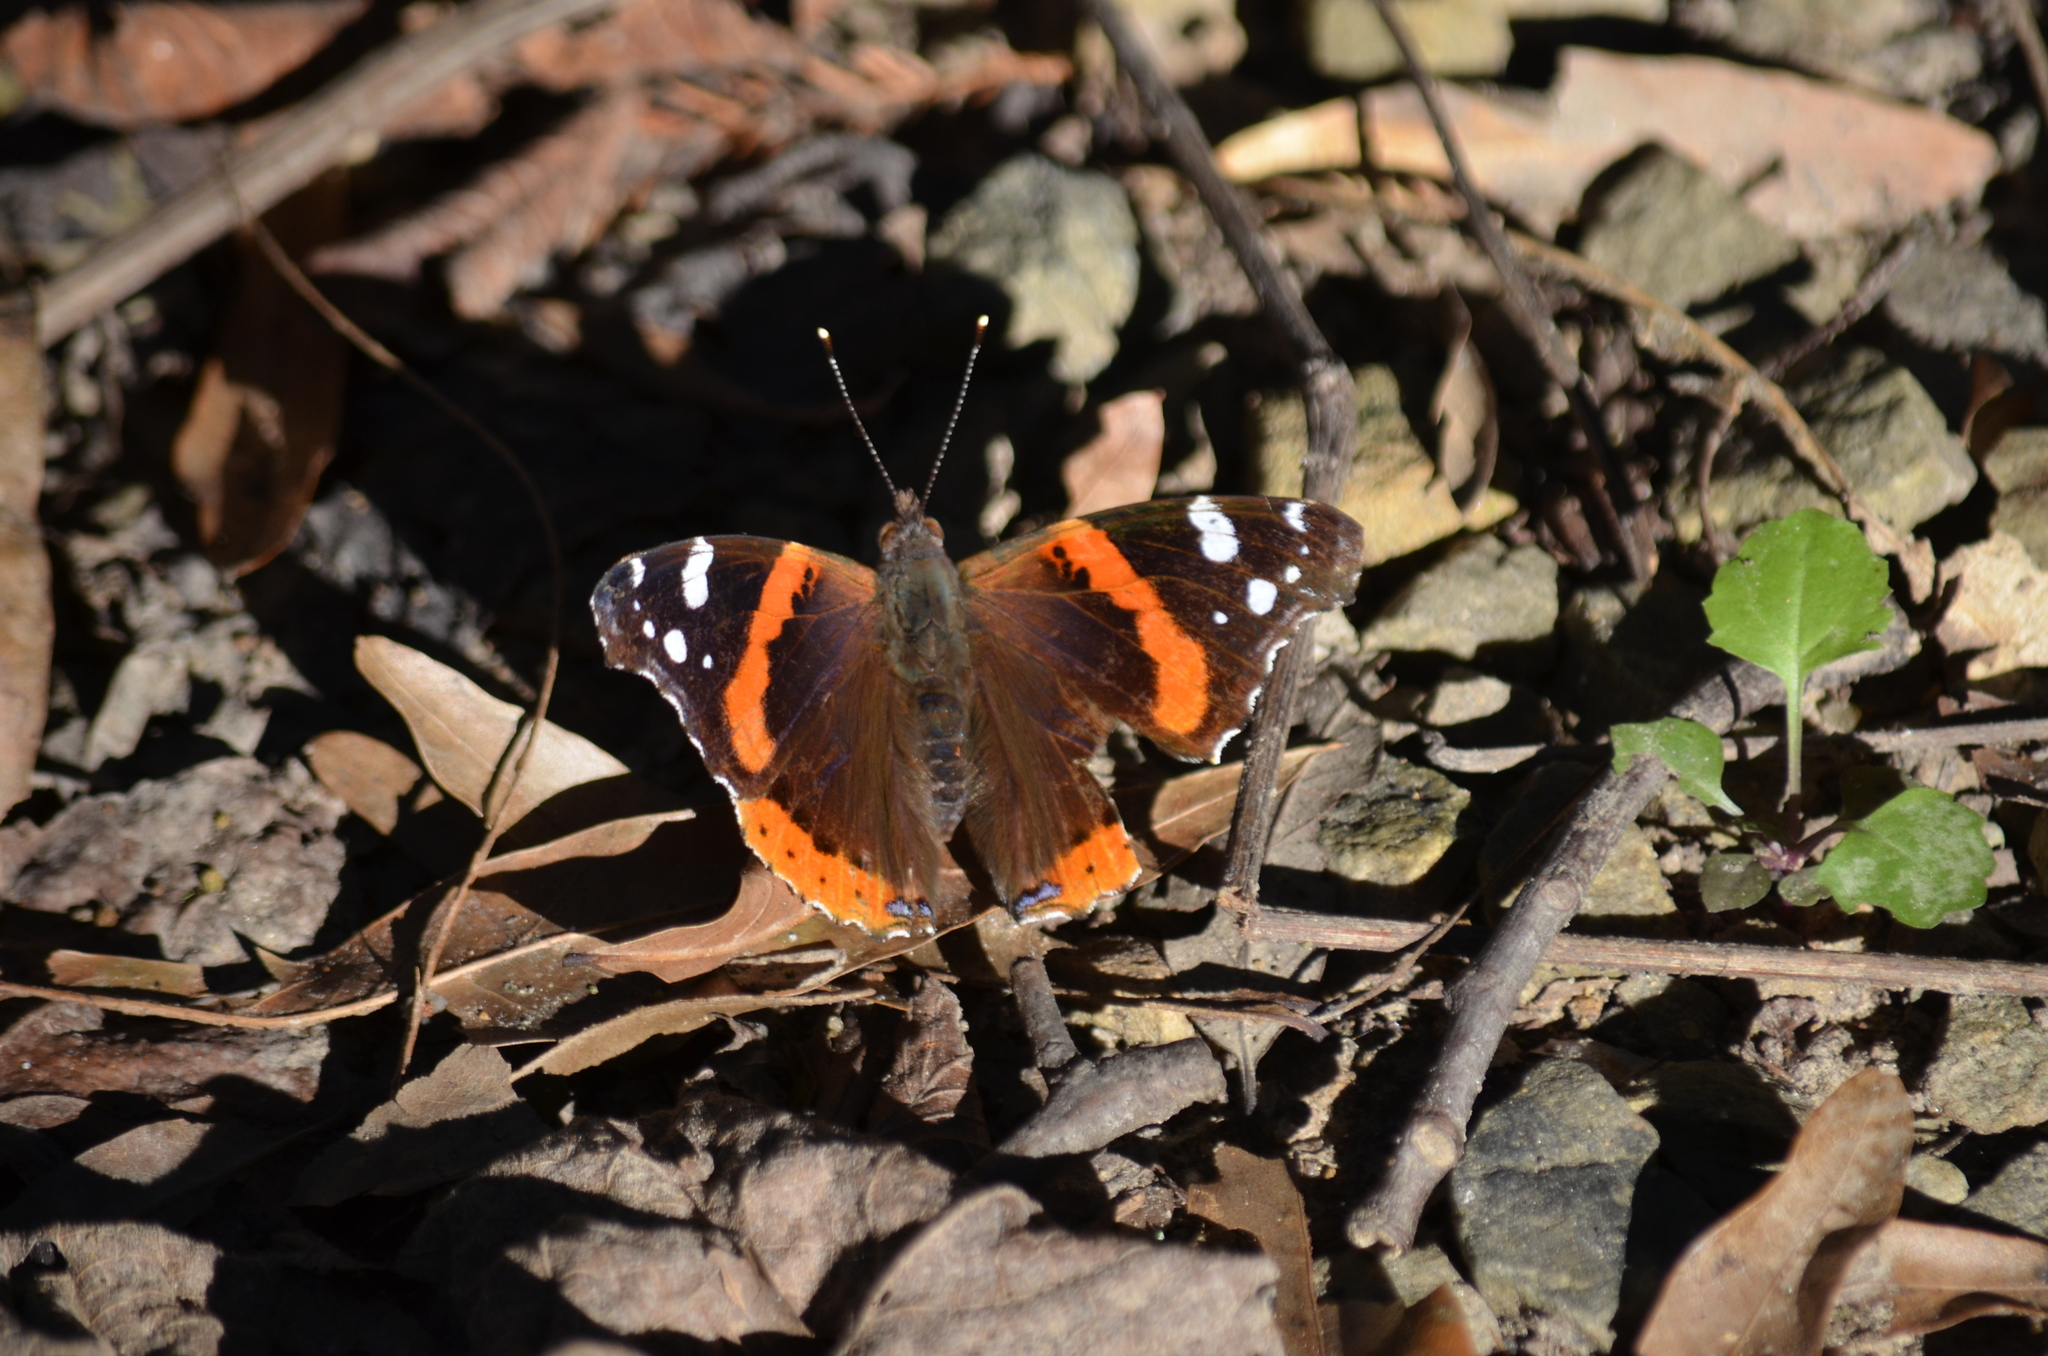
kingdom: Animalia
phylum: Arthropoda
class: Insecta
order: Lepidoptera
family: Nymphalidae
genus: Vanessa
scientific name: Vanessa atalanta
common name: Red admiral
